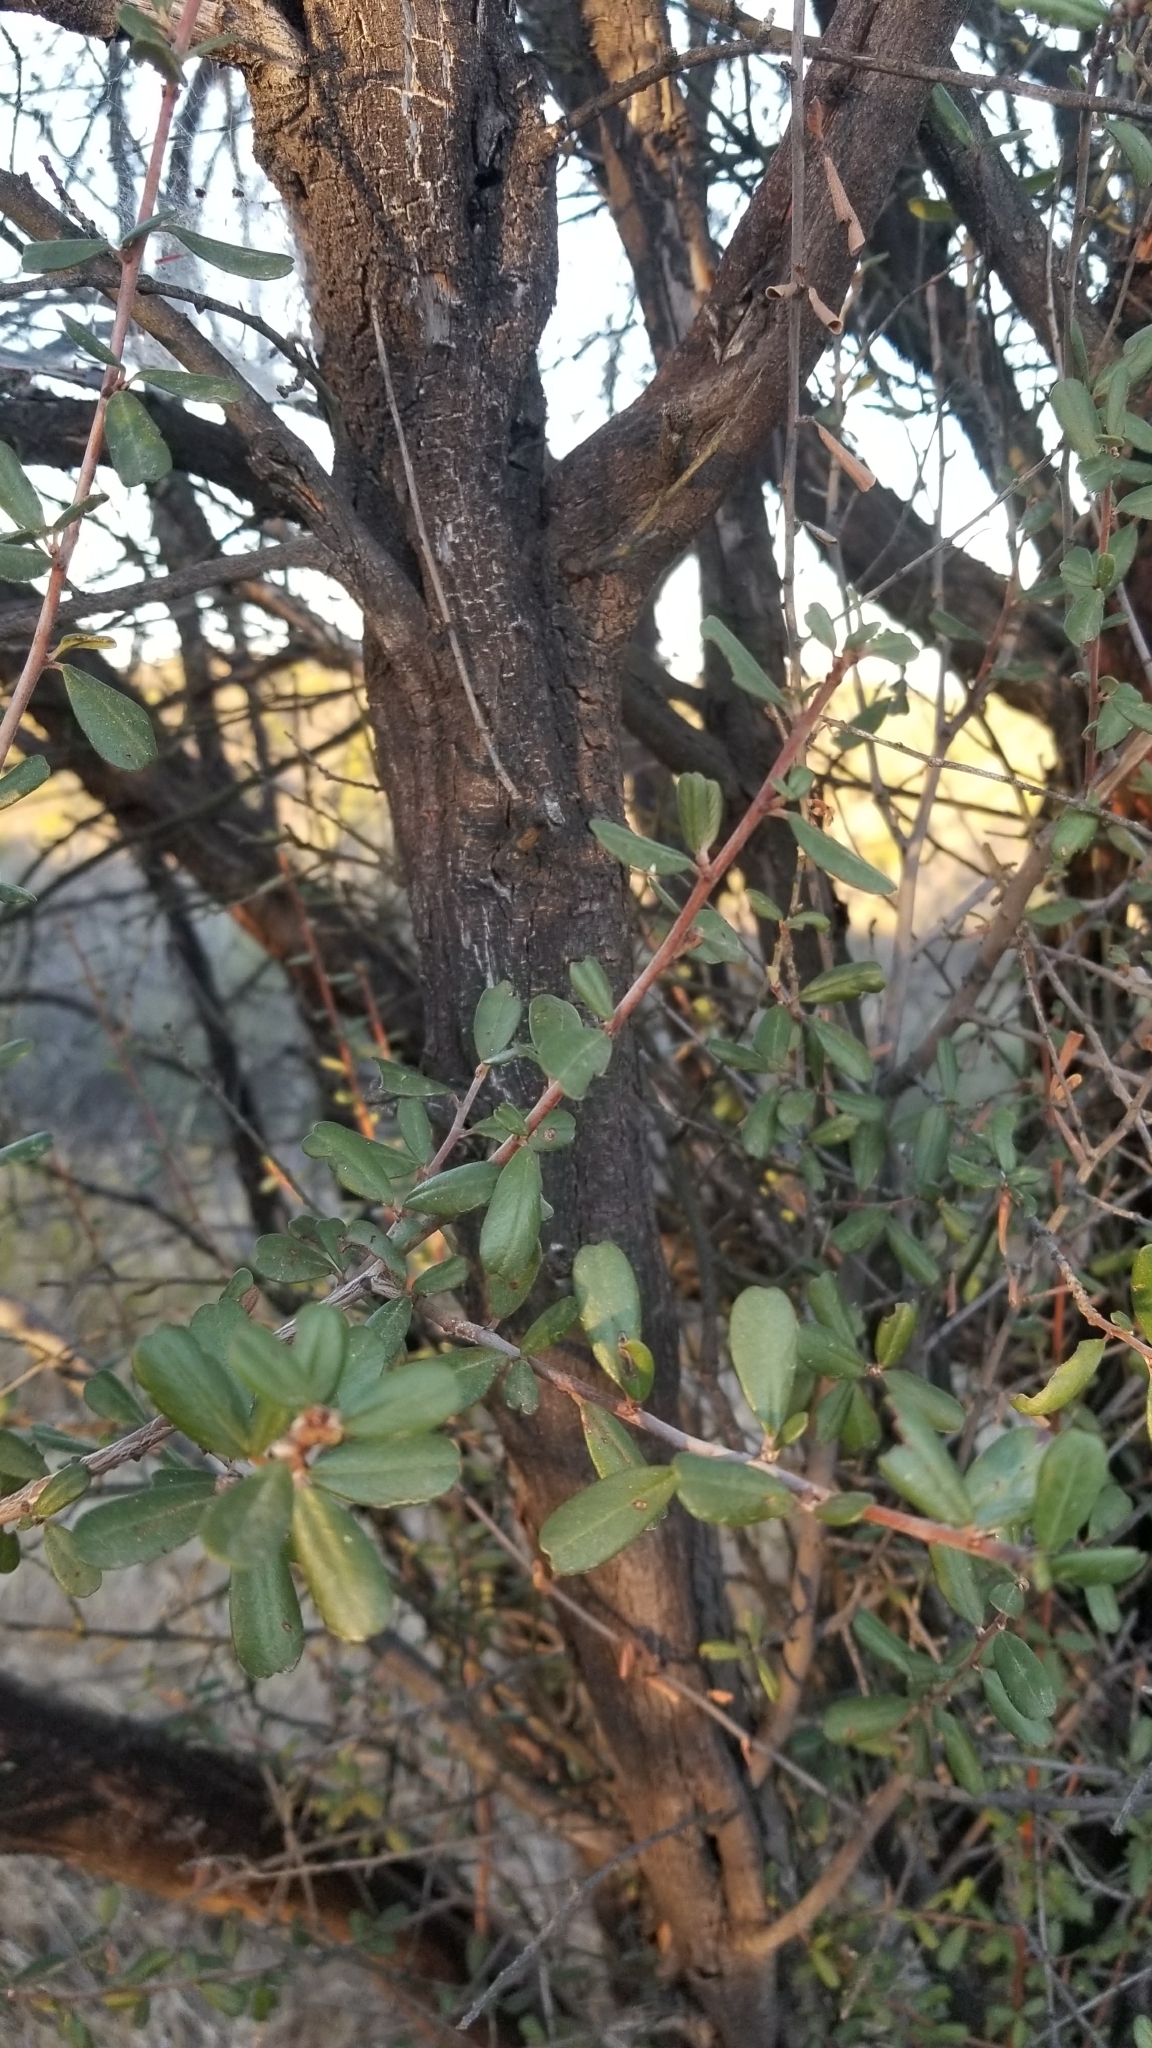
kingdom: Plantae
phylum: Tracheophyta
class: Magnoliopsida
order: Rosales
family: Rhamnaceae
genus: Ceanothus
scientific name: Ceanothus megacarpus
